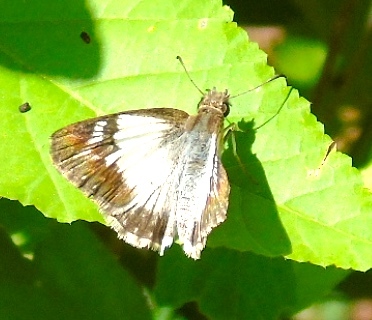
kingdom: Animalia
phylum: Arthropoda
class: Insecta
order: Lepidoptera
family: Hesperiidae
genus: Heliopetes
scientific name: Heliopetes macaira
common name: Turk's-cap white-skipper
